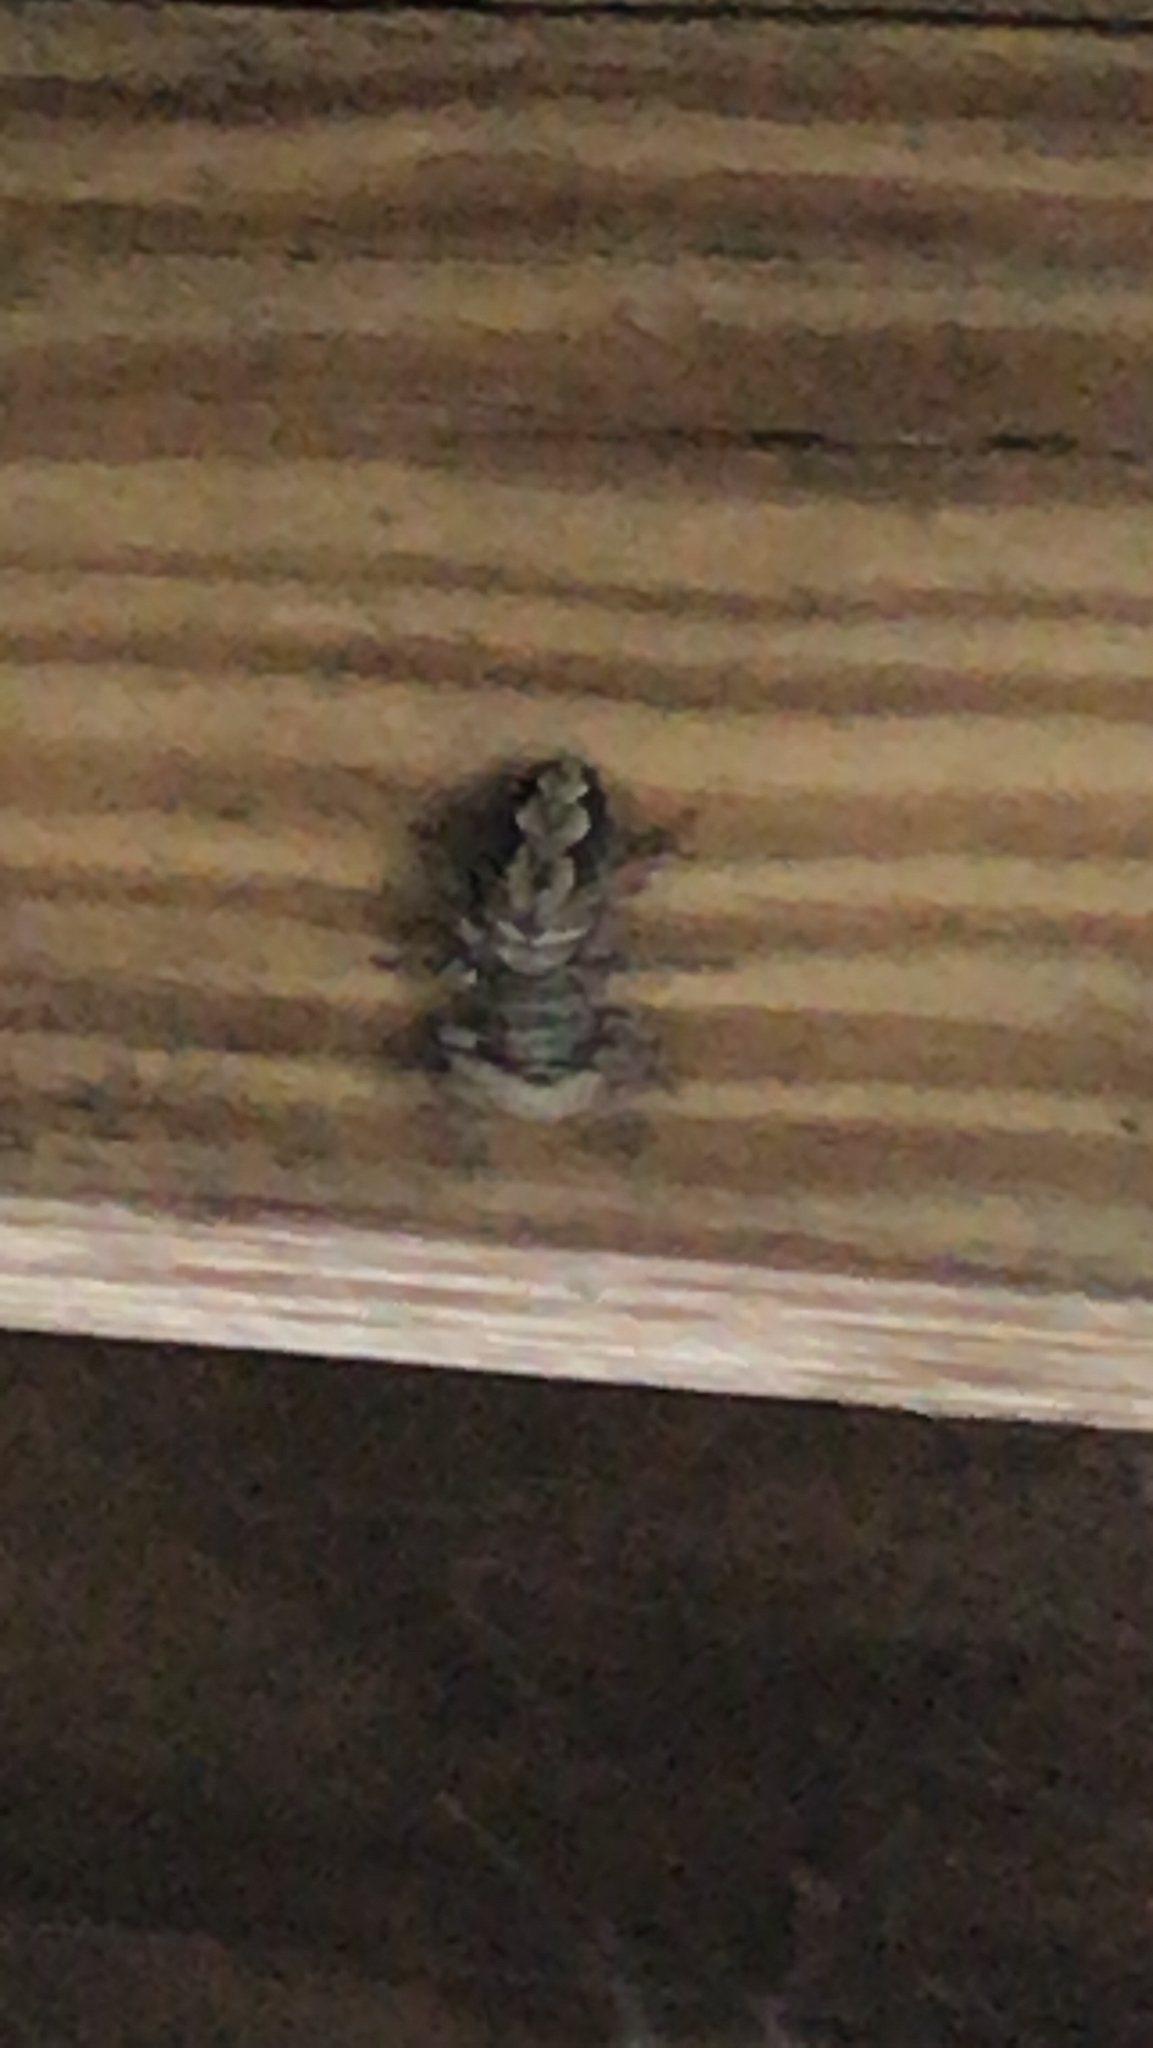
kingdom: Animalia
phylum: Arthropoda
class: Arachnida
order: Araneae
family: Salticidae
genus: Platycryptus
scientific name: Platycryptus undatus
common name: Tan jumping spider
